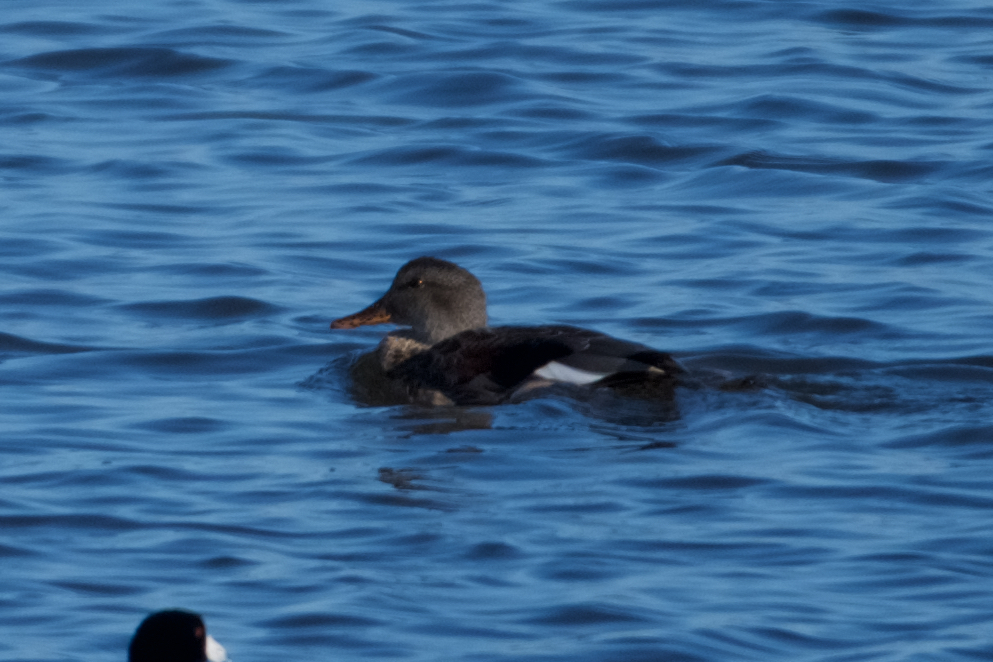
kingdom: Animalia
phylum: Chordata
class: Aves
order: Anseriformes
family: Anatidae
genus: Mareca
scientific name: Mareca strepera
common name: Gadwall
